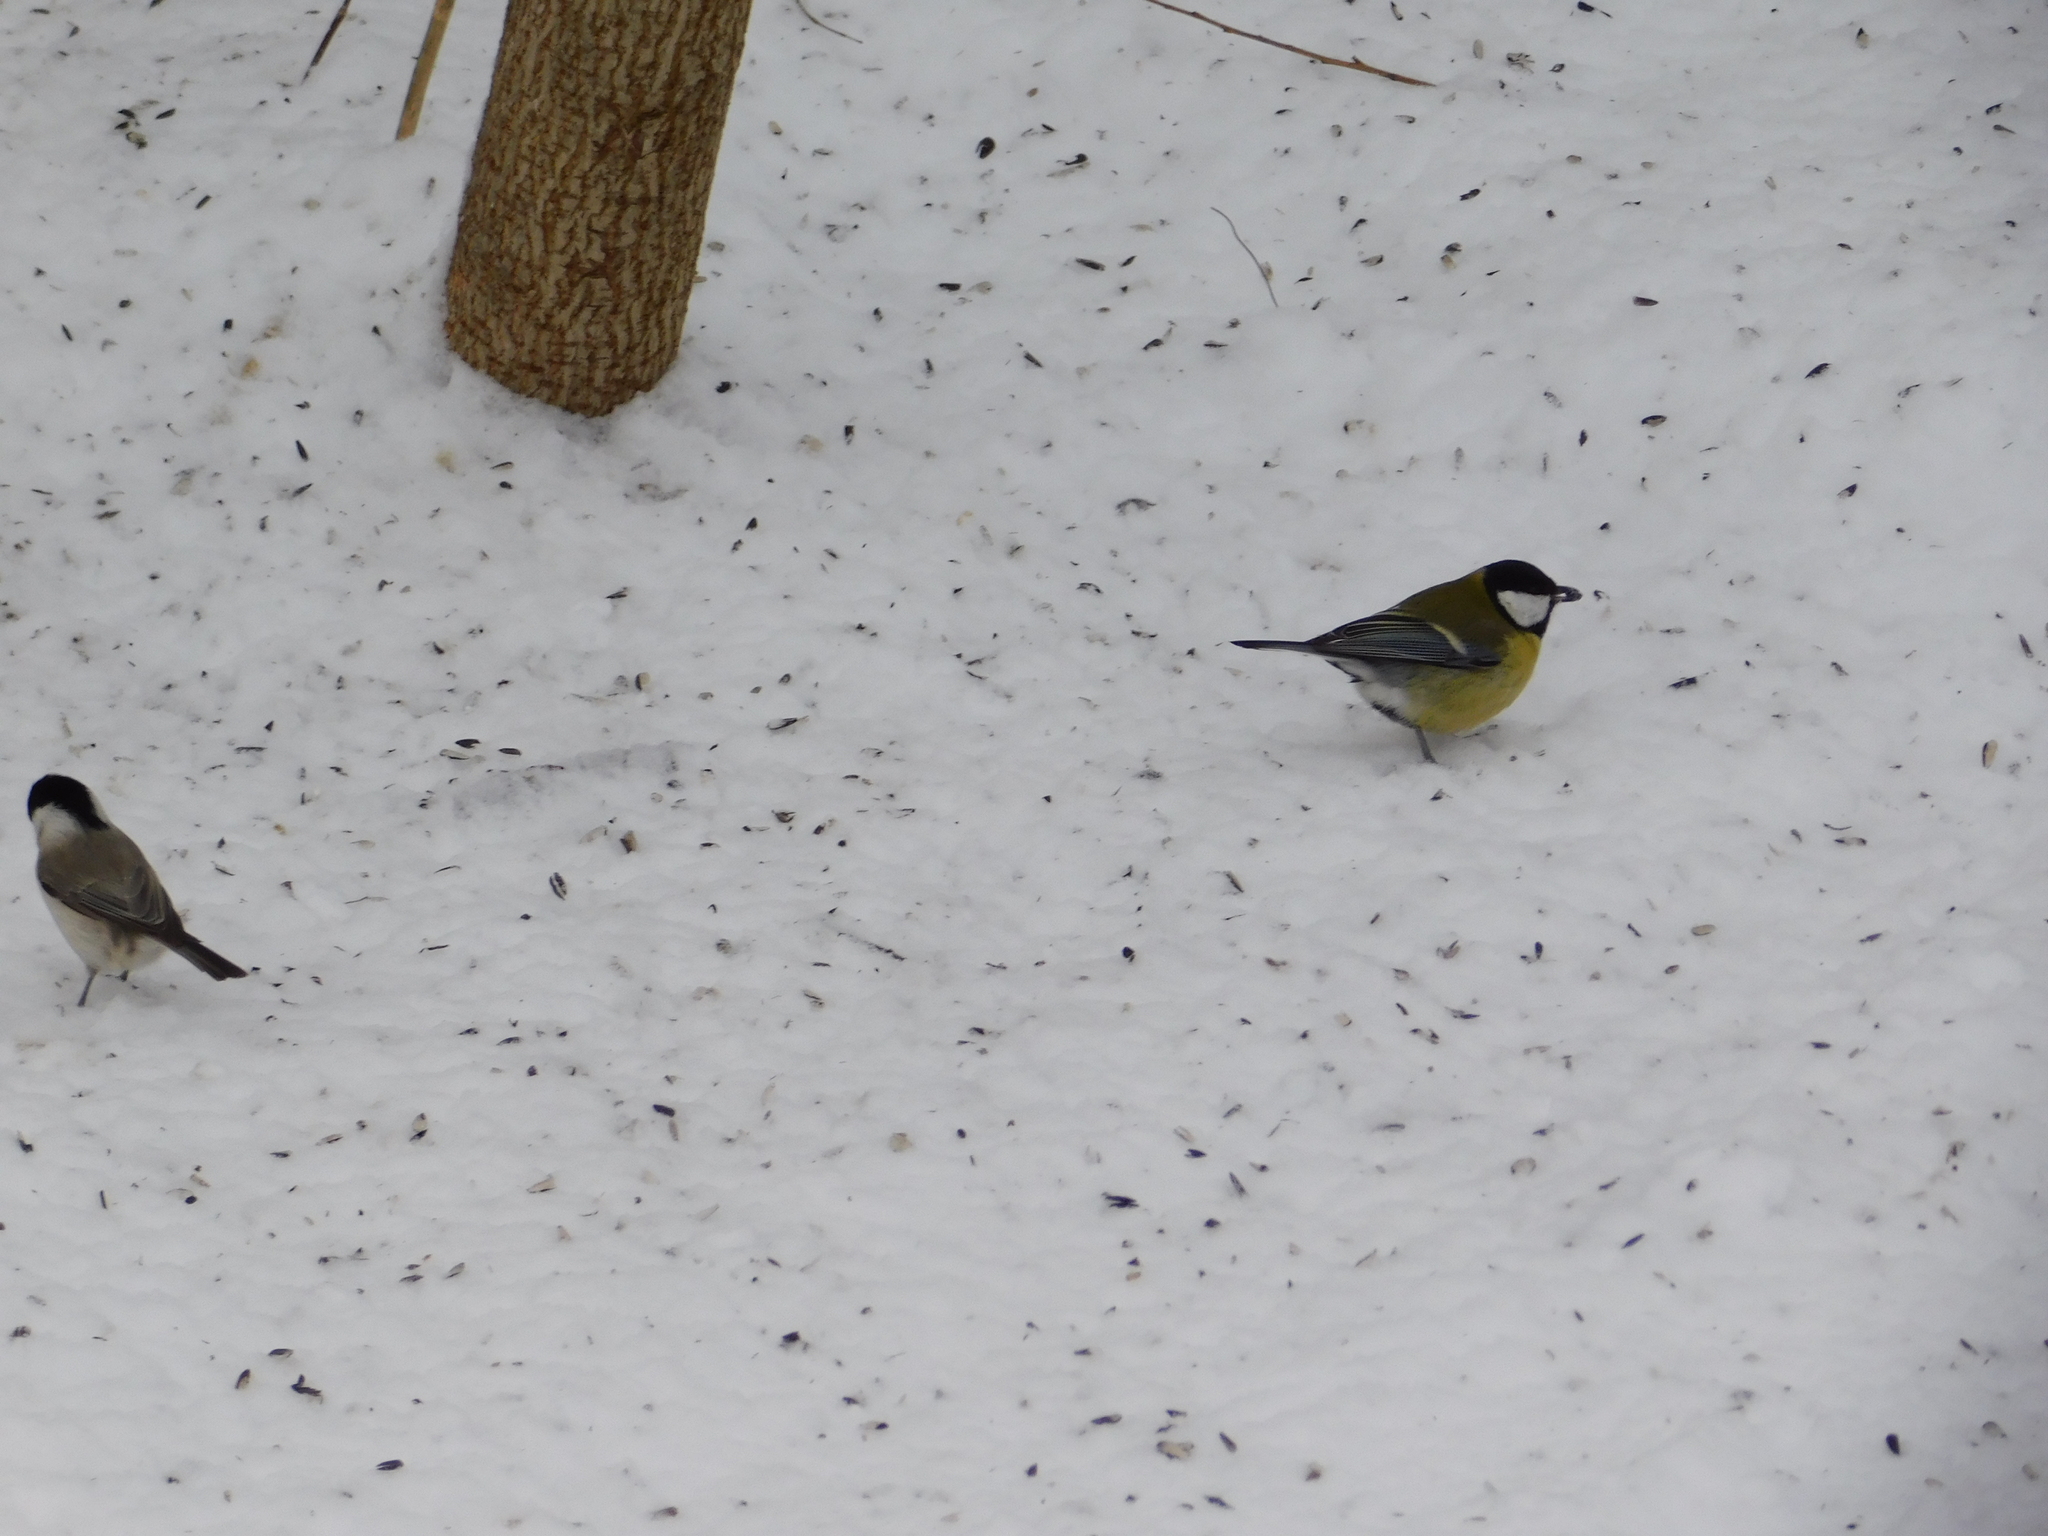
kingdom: Animalia
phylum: Chordata
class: Aves
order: Passeriformes
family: Paridae
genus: Parus
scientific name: Parus major
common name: Great tit
